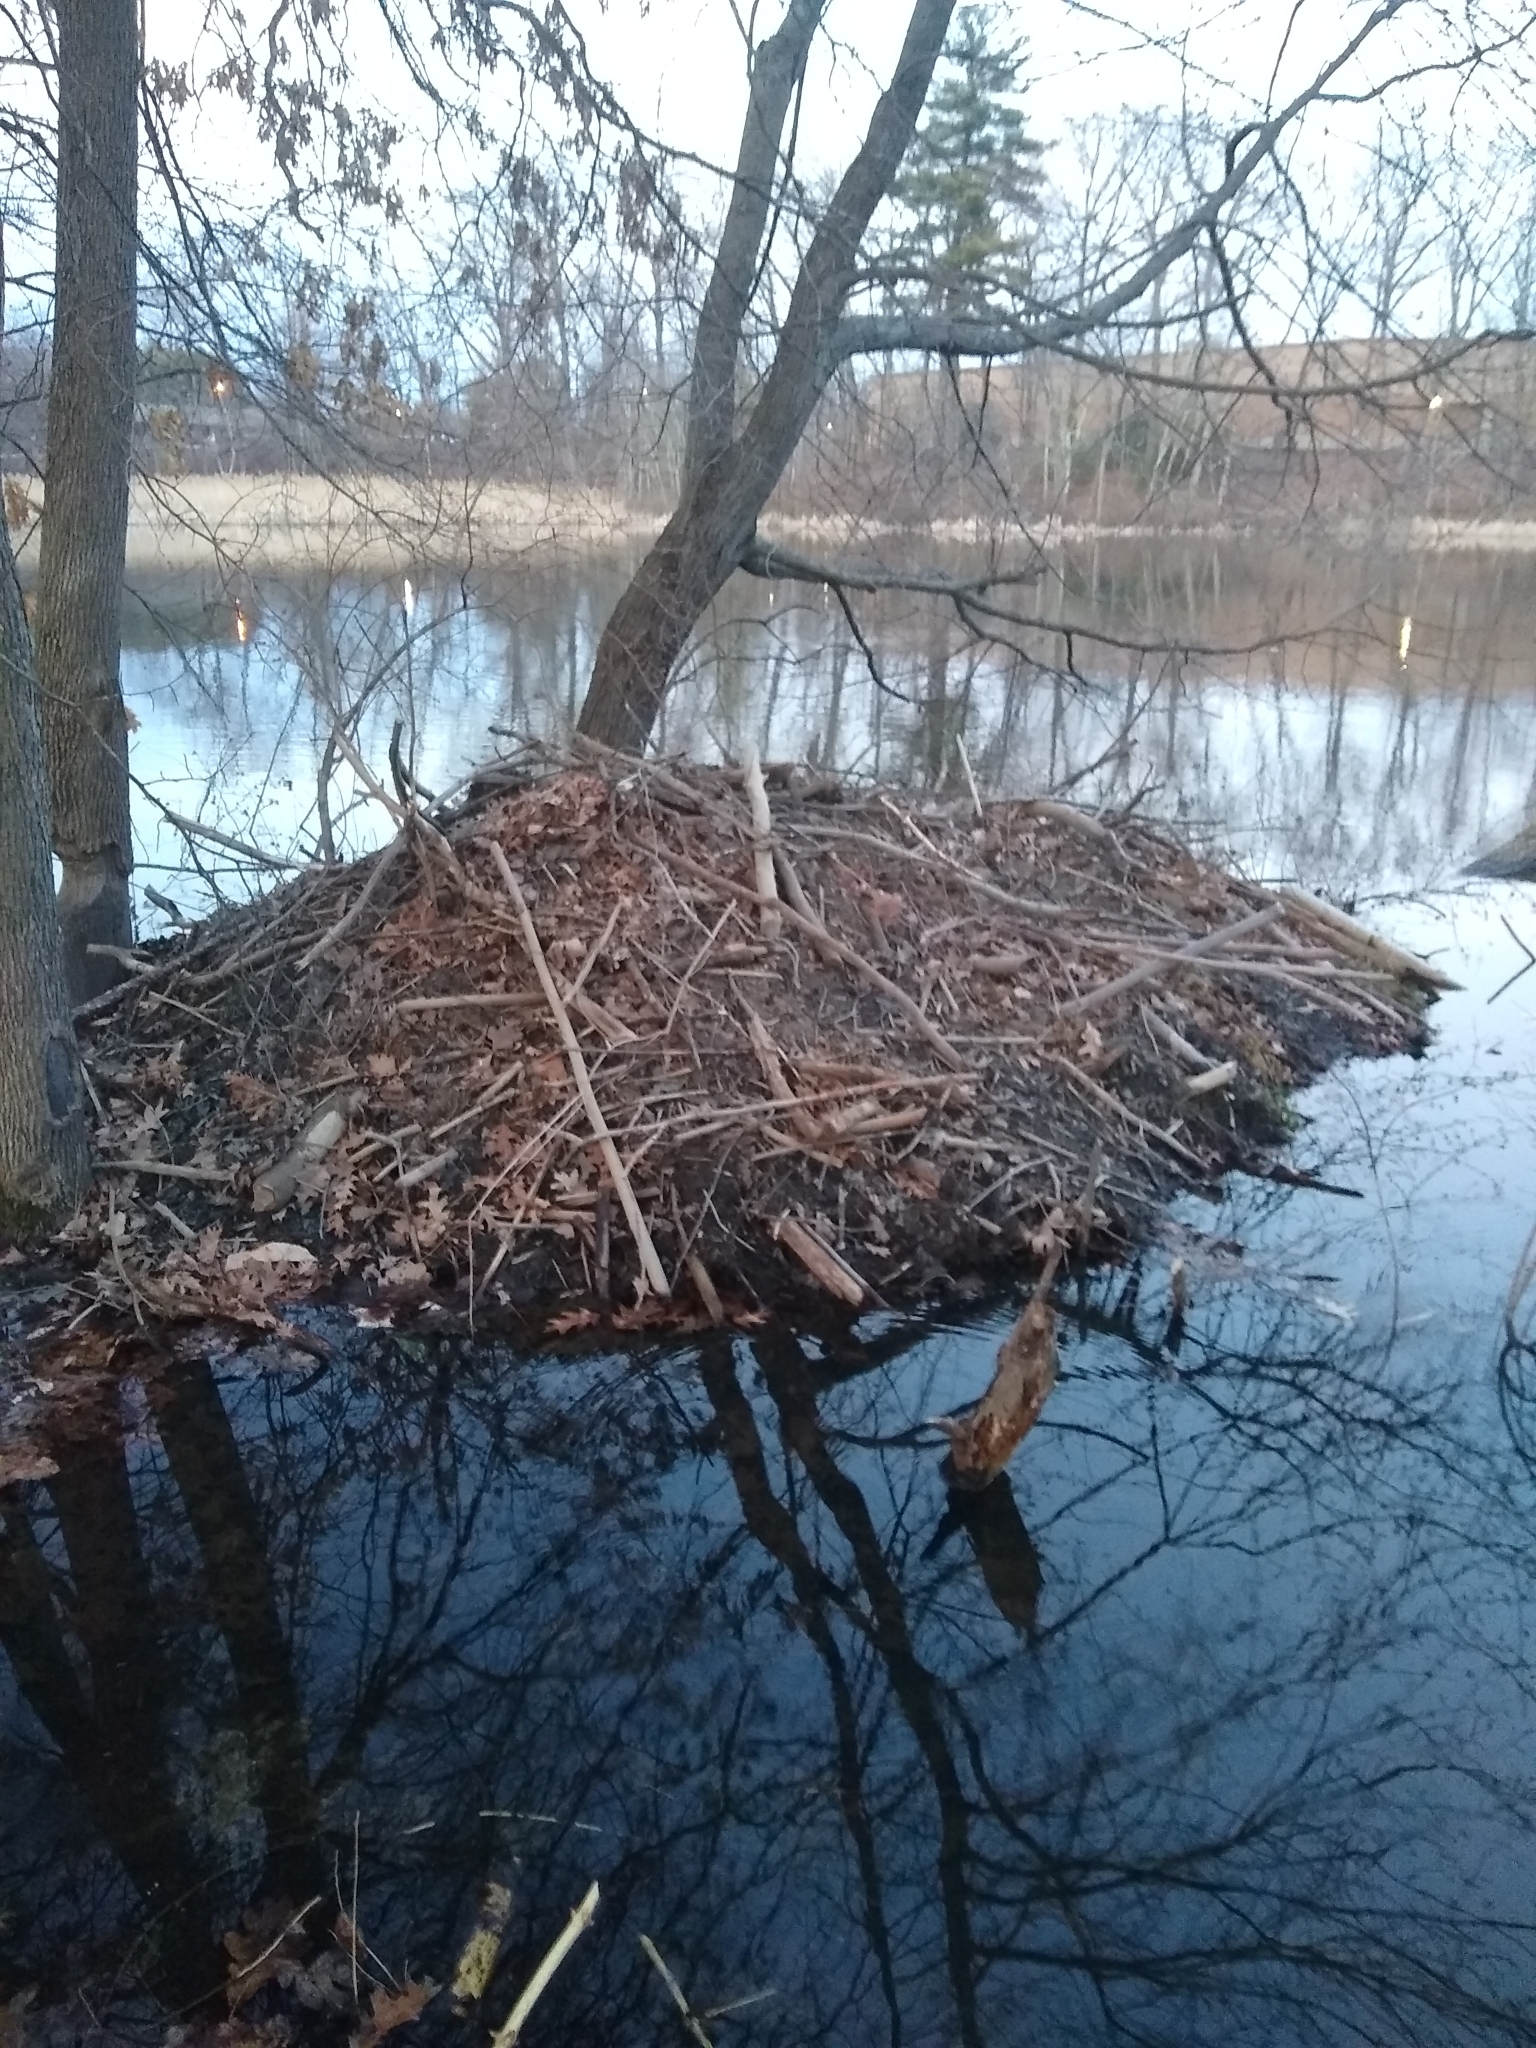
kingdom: Animalia
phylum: Chordata
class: Mammalia
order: Rodentia
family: Castoridae
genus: Castor
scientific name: Castor canadensis
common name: American beaver
